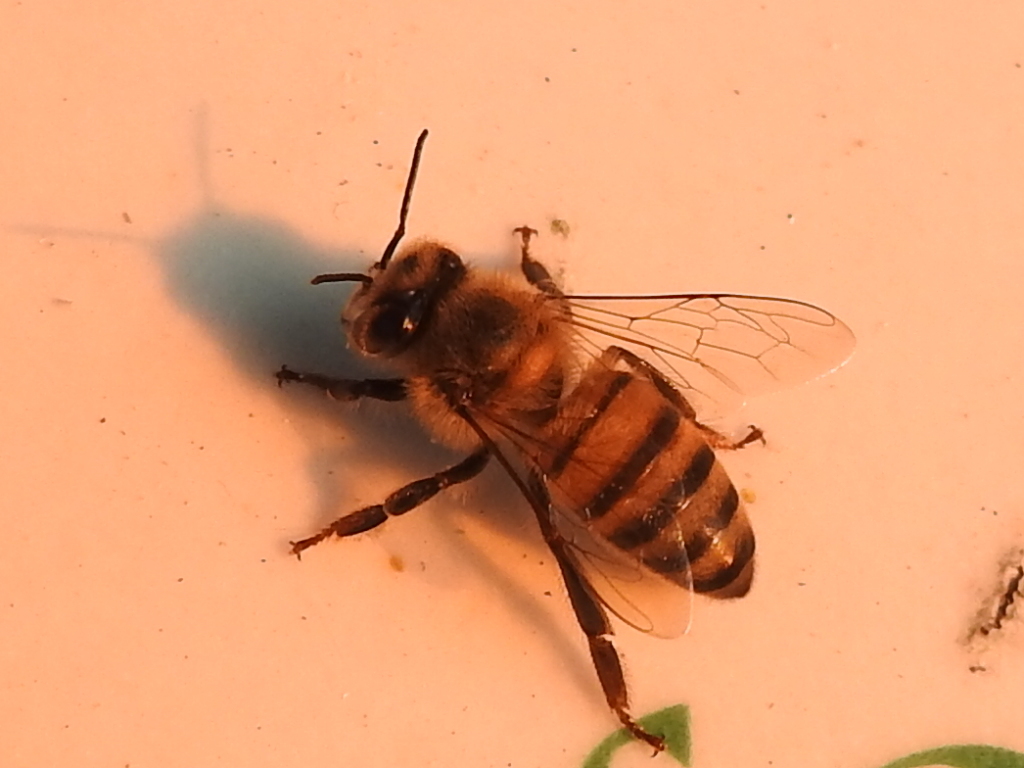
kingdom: Animalia
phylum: Arthropoda
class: Insecta
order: Hymenoptera
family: Apidae
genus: Apis
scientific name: Apis mellifera
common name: Honey bee
